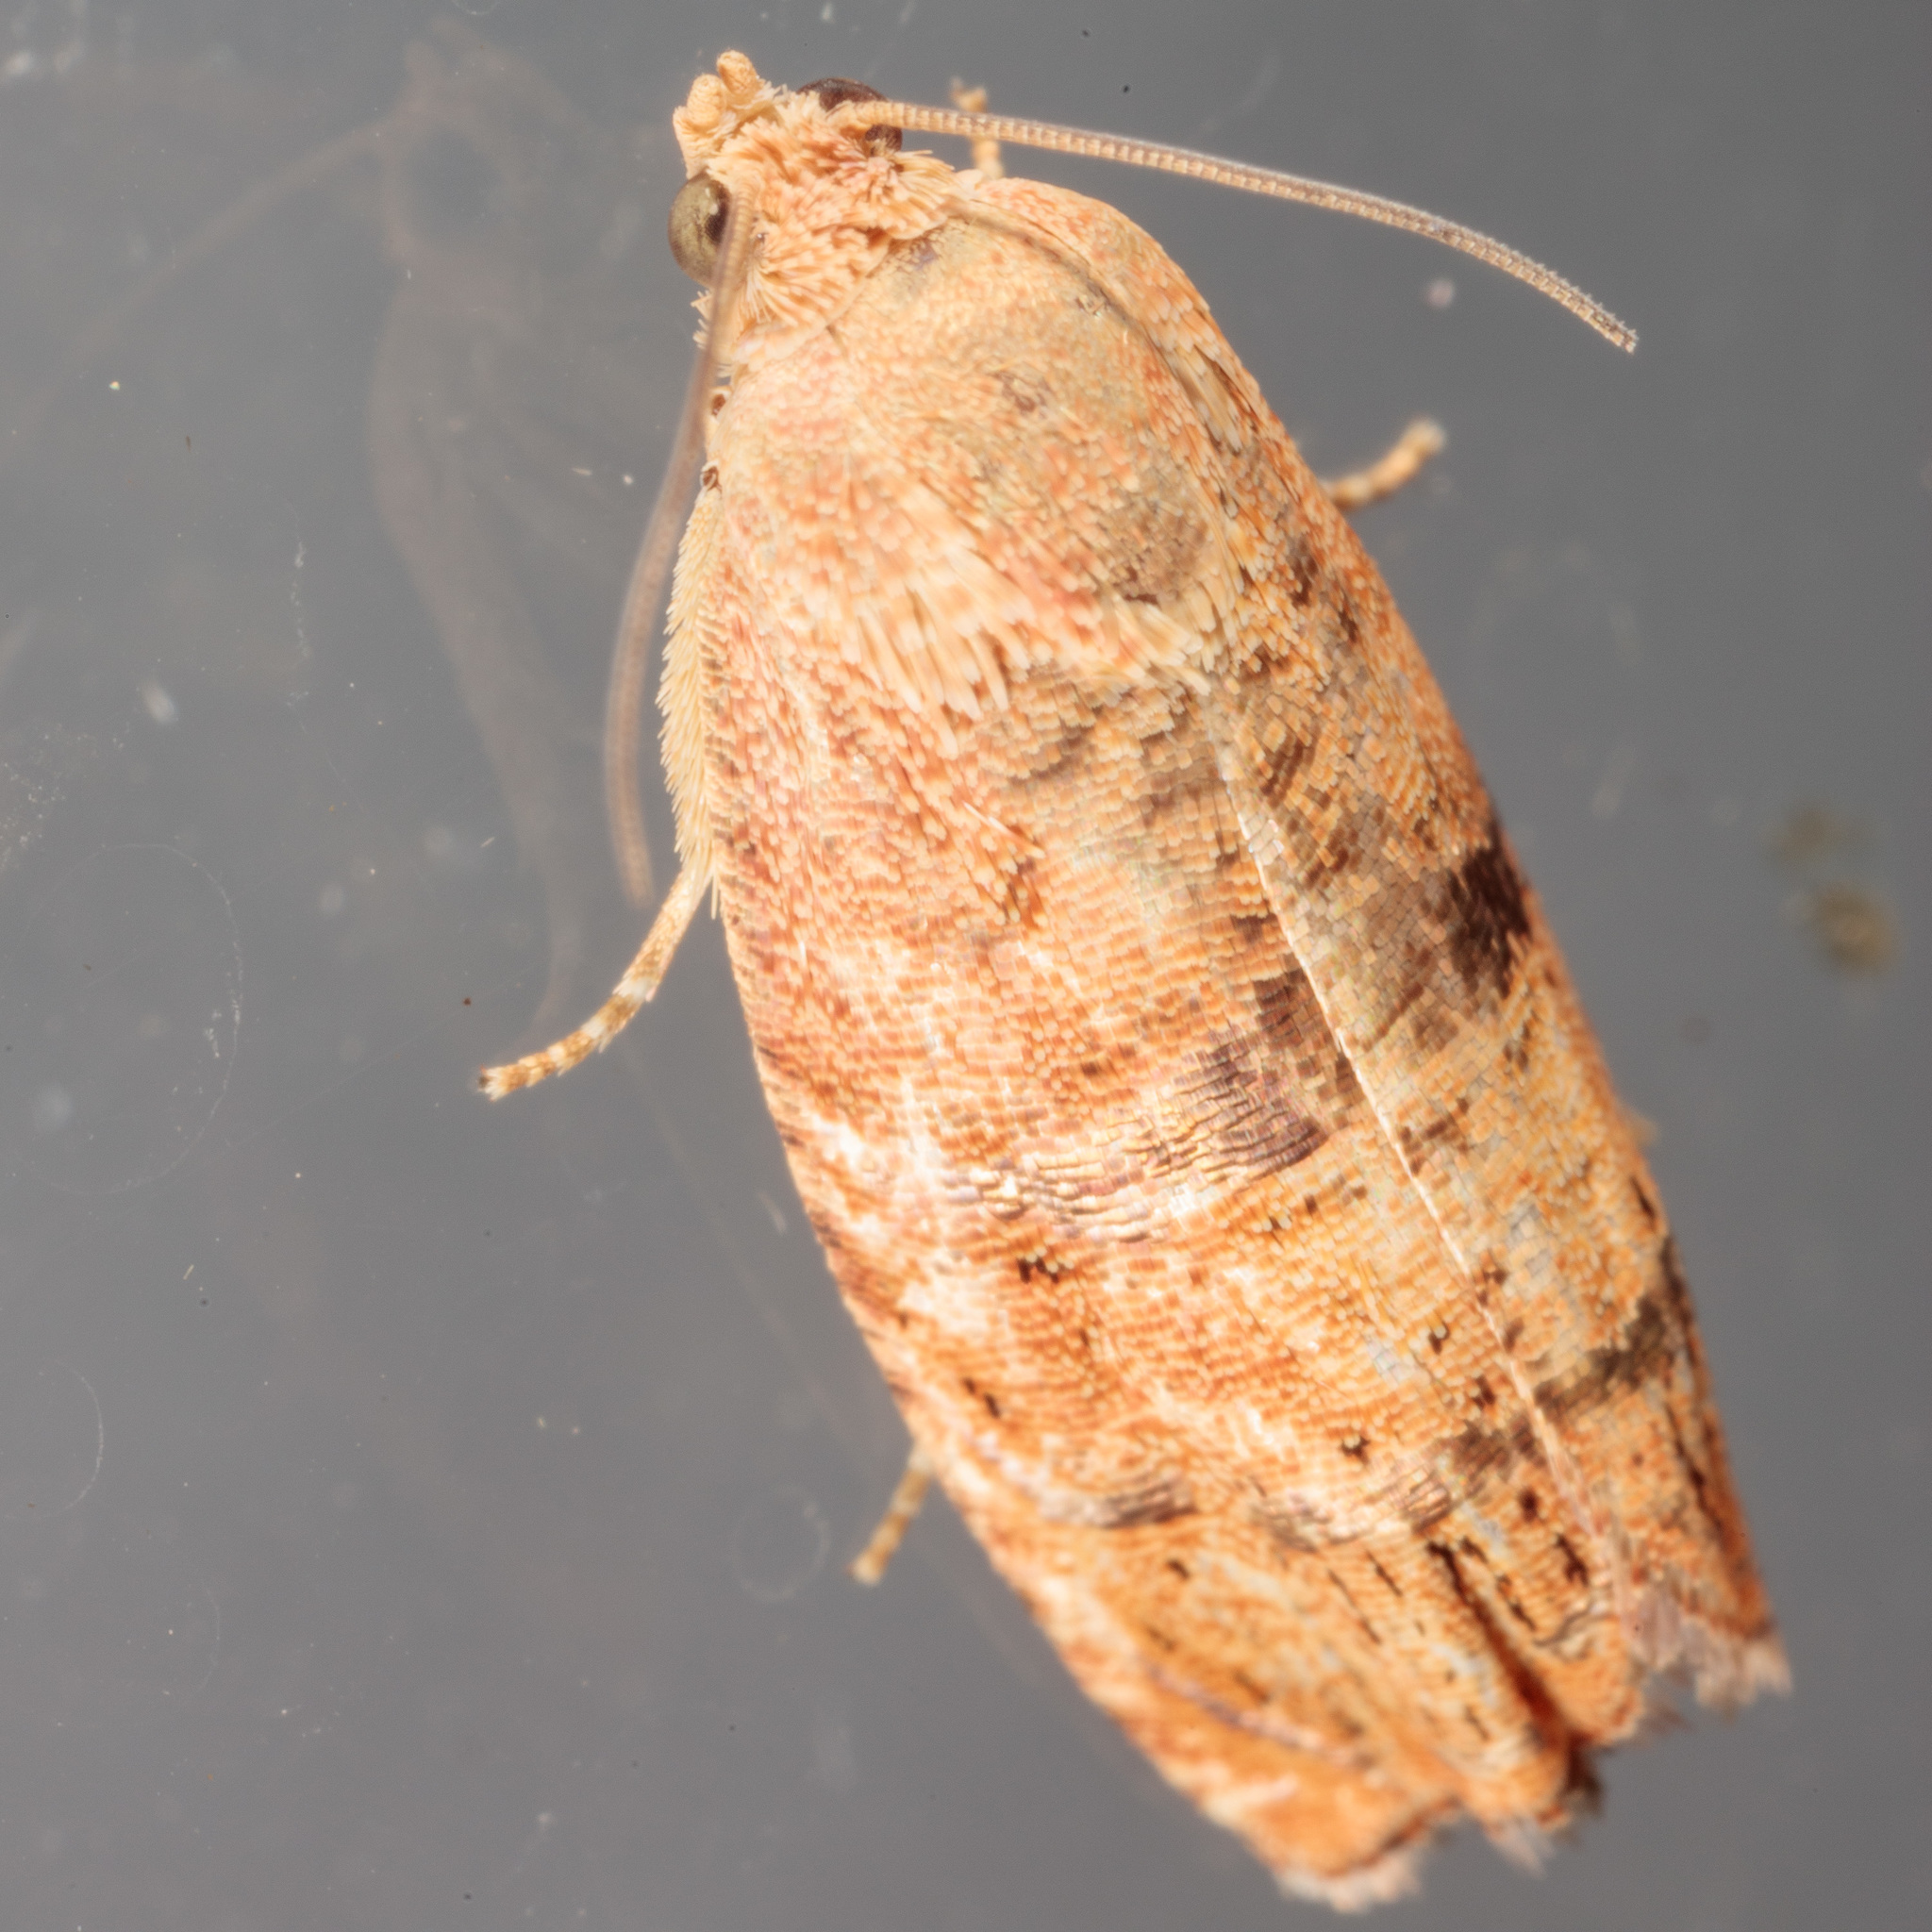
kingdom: Animalia
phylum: Arthropoda
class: Insecta
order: Lepidoptera
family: Tortricidae
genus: Cydia
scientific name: Cydia latiferreana
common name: Filbertworm moth
